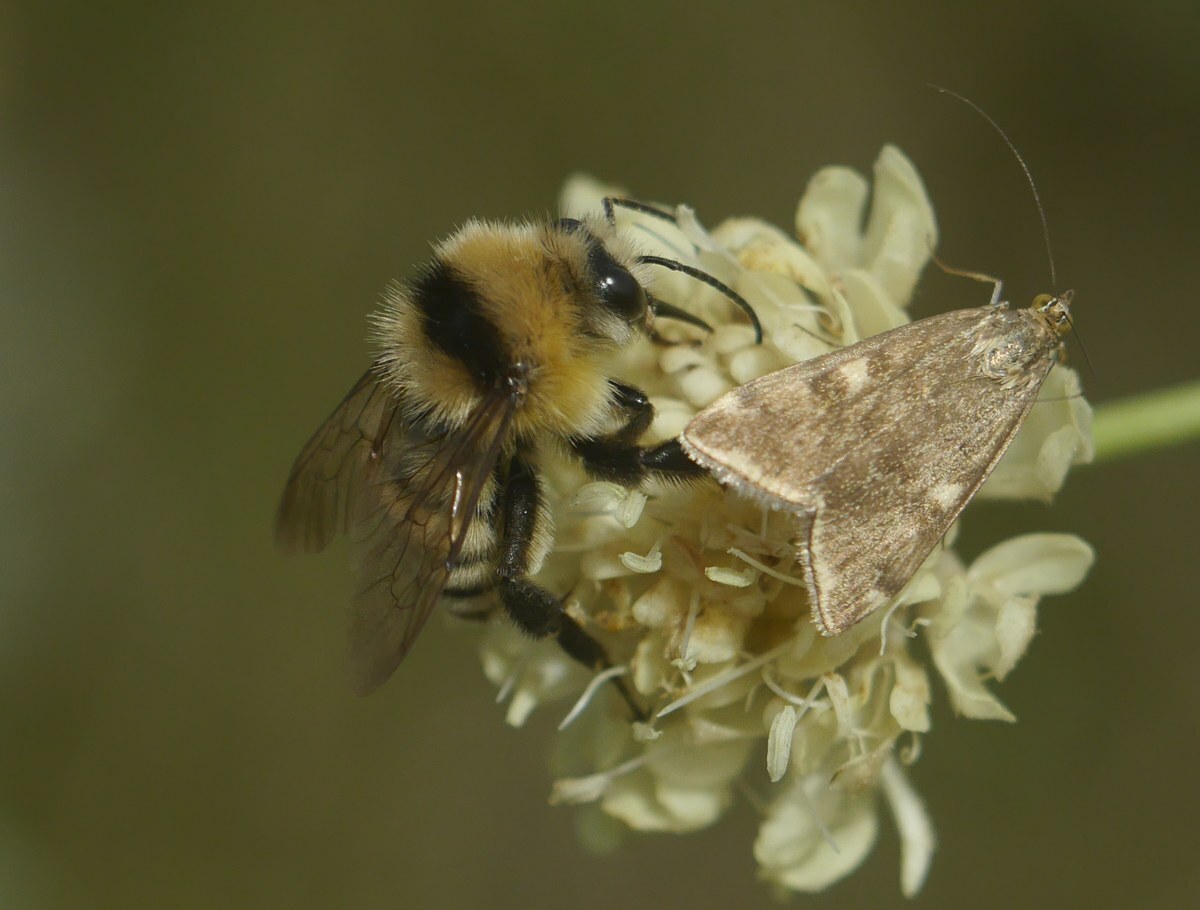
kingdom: Animalia
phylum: Arthropoda
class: Insecta
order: Hymenoptera
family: Apidae
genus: Bombus
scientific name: Bombus zonatus
